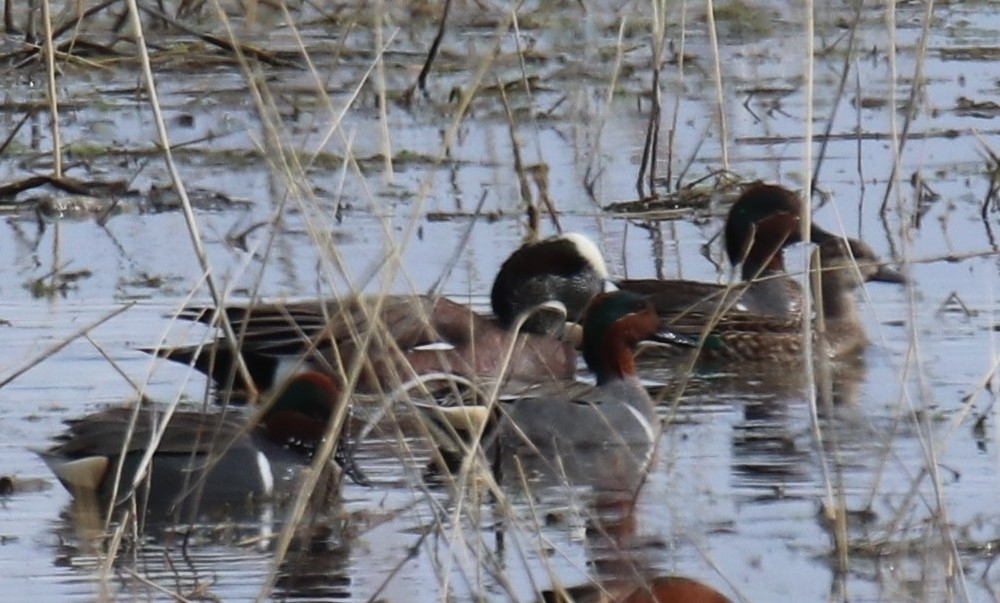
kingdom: Animalia
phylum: Chordata
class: Aves
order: Anseriformes
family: Anatidae
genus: Mareca
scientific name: Mareca americana
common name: American wigeon
